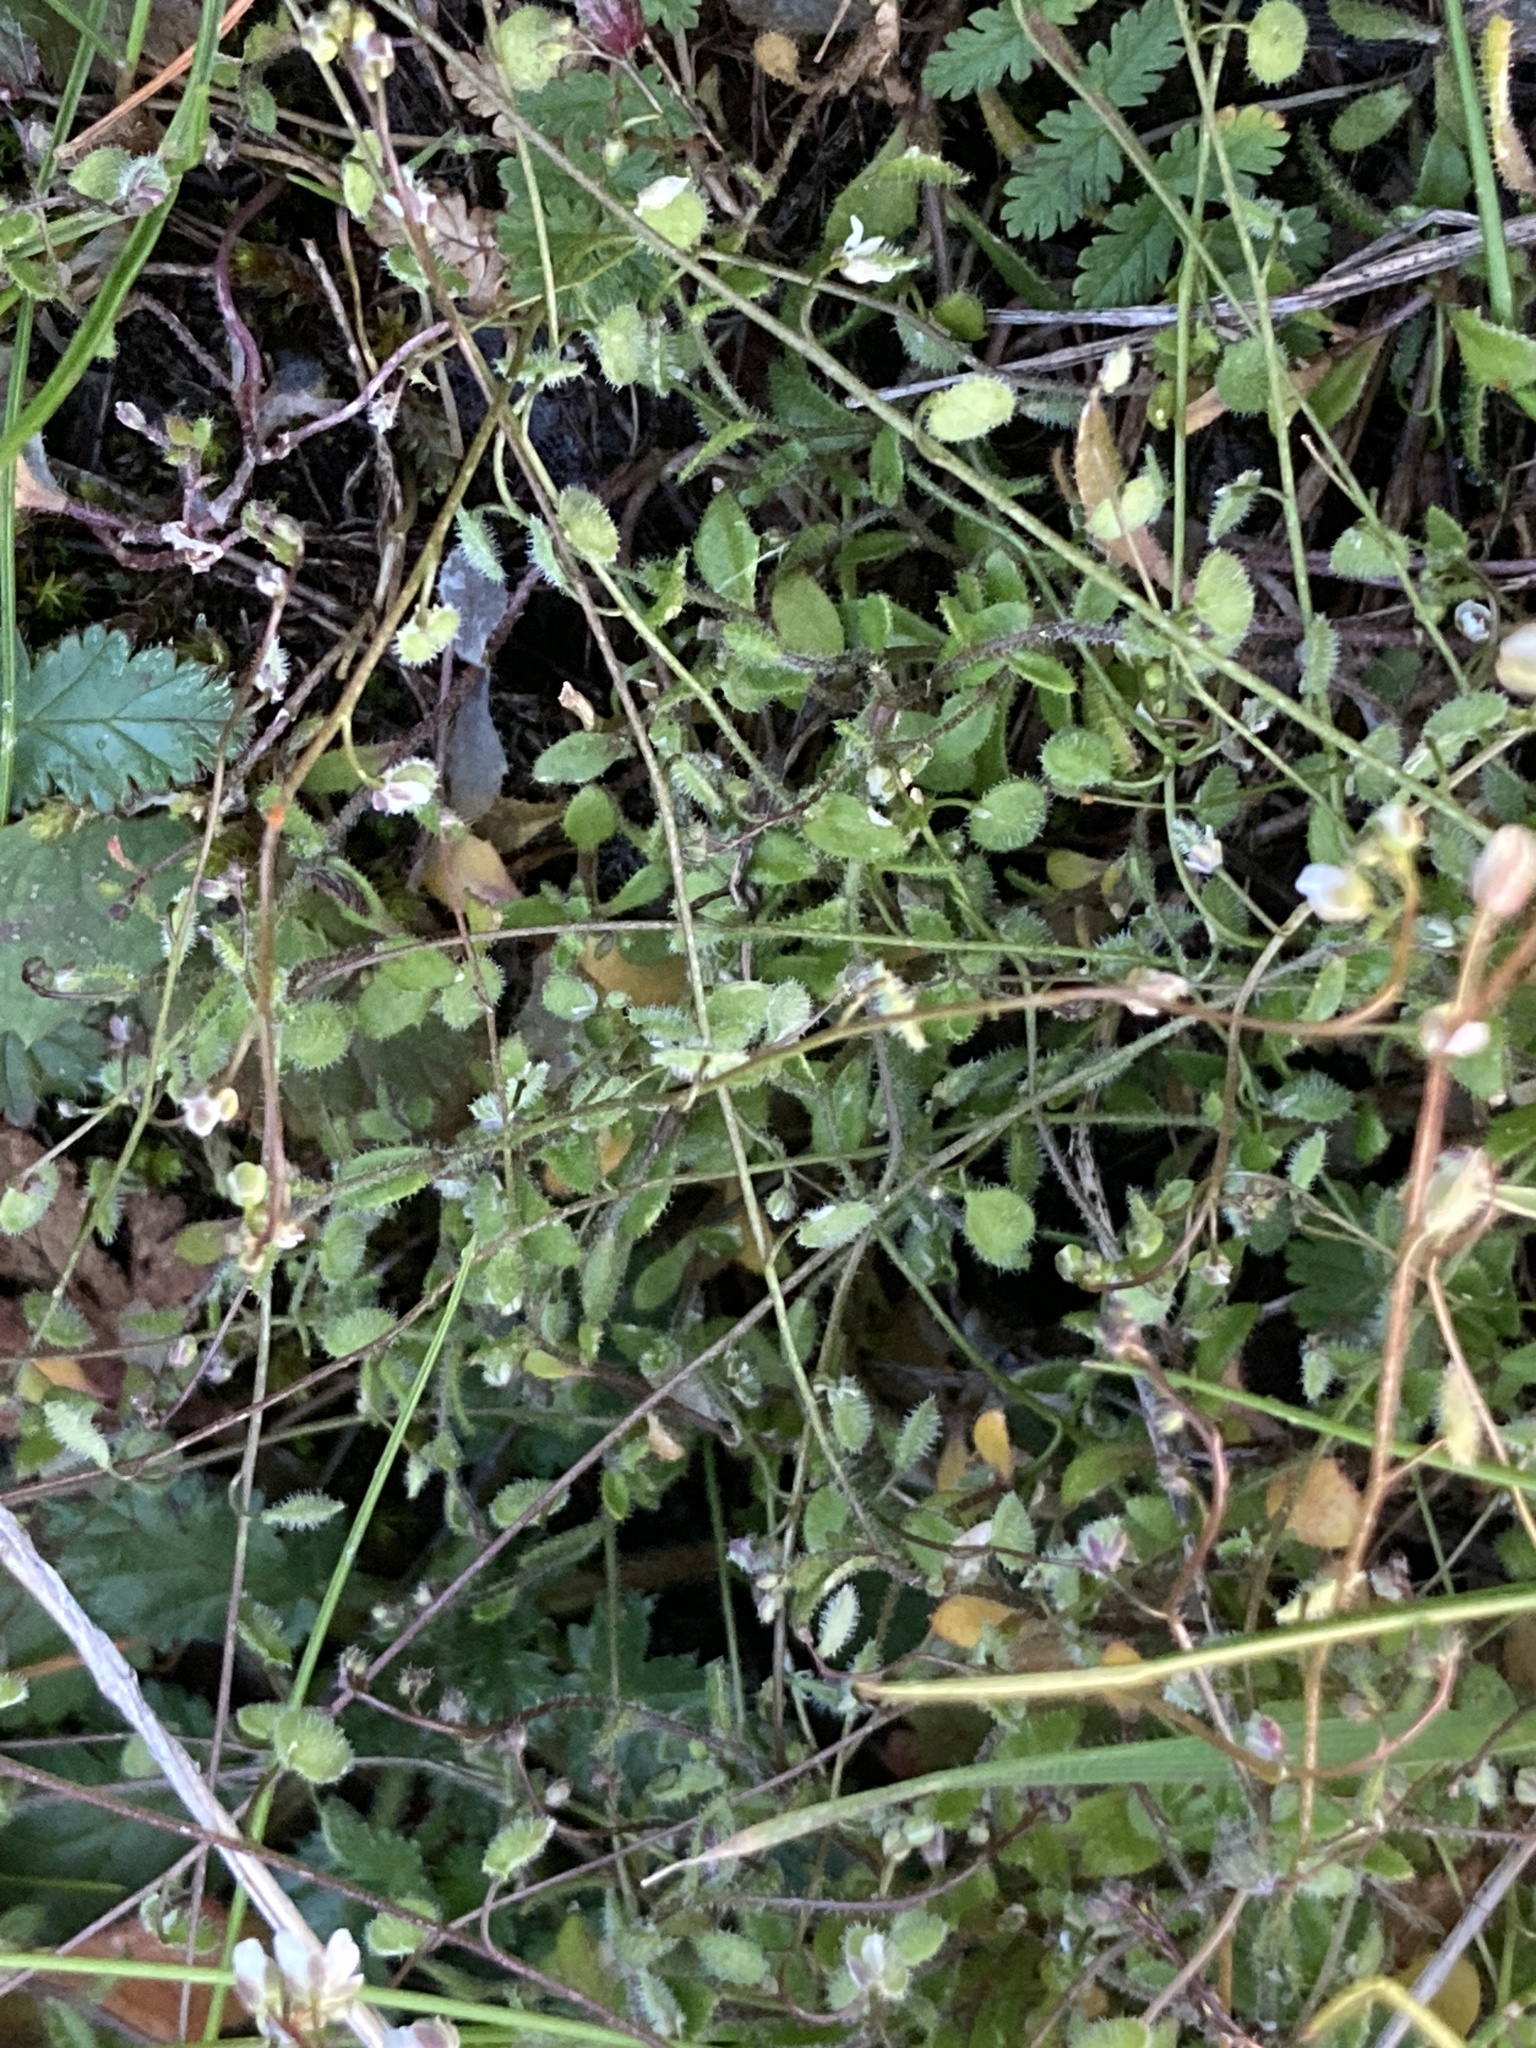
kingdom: Plantae
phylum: Tracheophyta
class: Magnoliopsida
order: Brassicales
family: Brassicaceae
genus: Athysanus
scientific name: Athysanus pusillus
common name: Common sandweed
